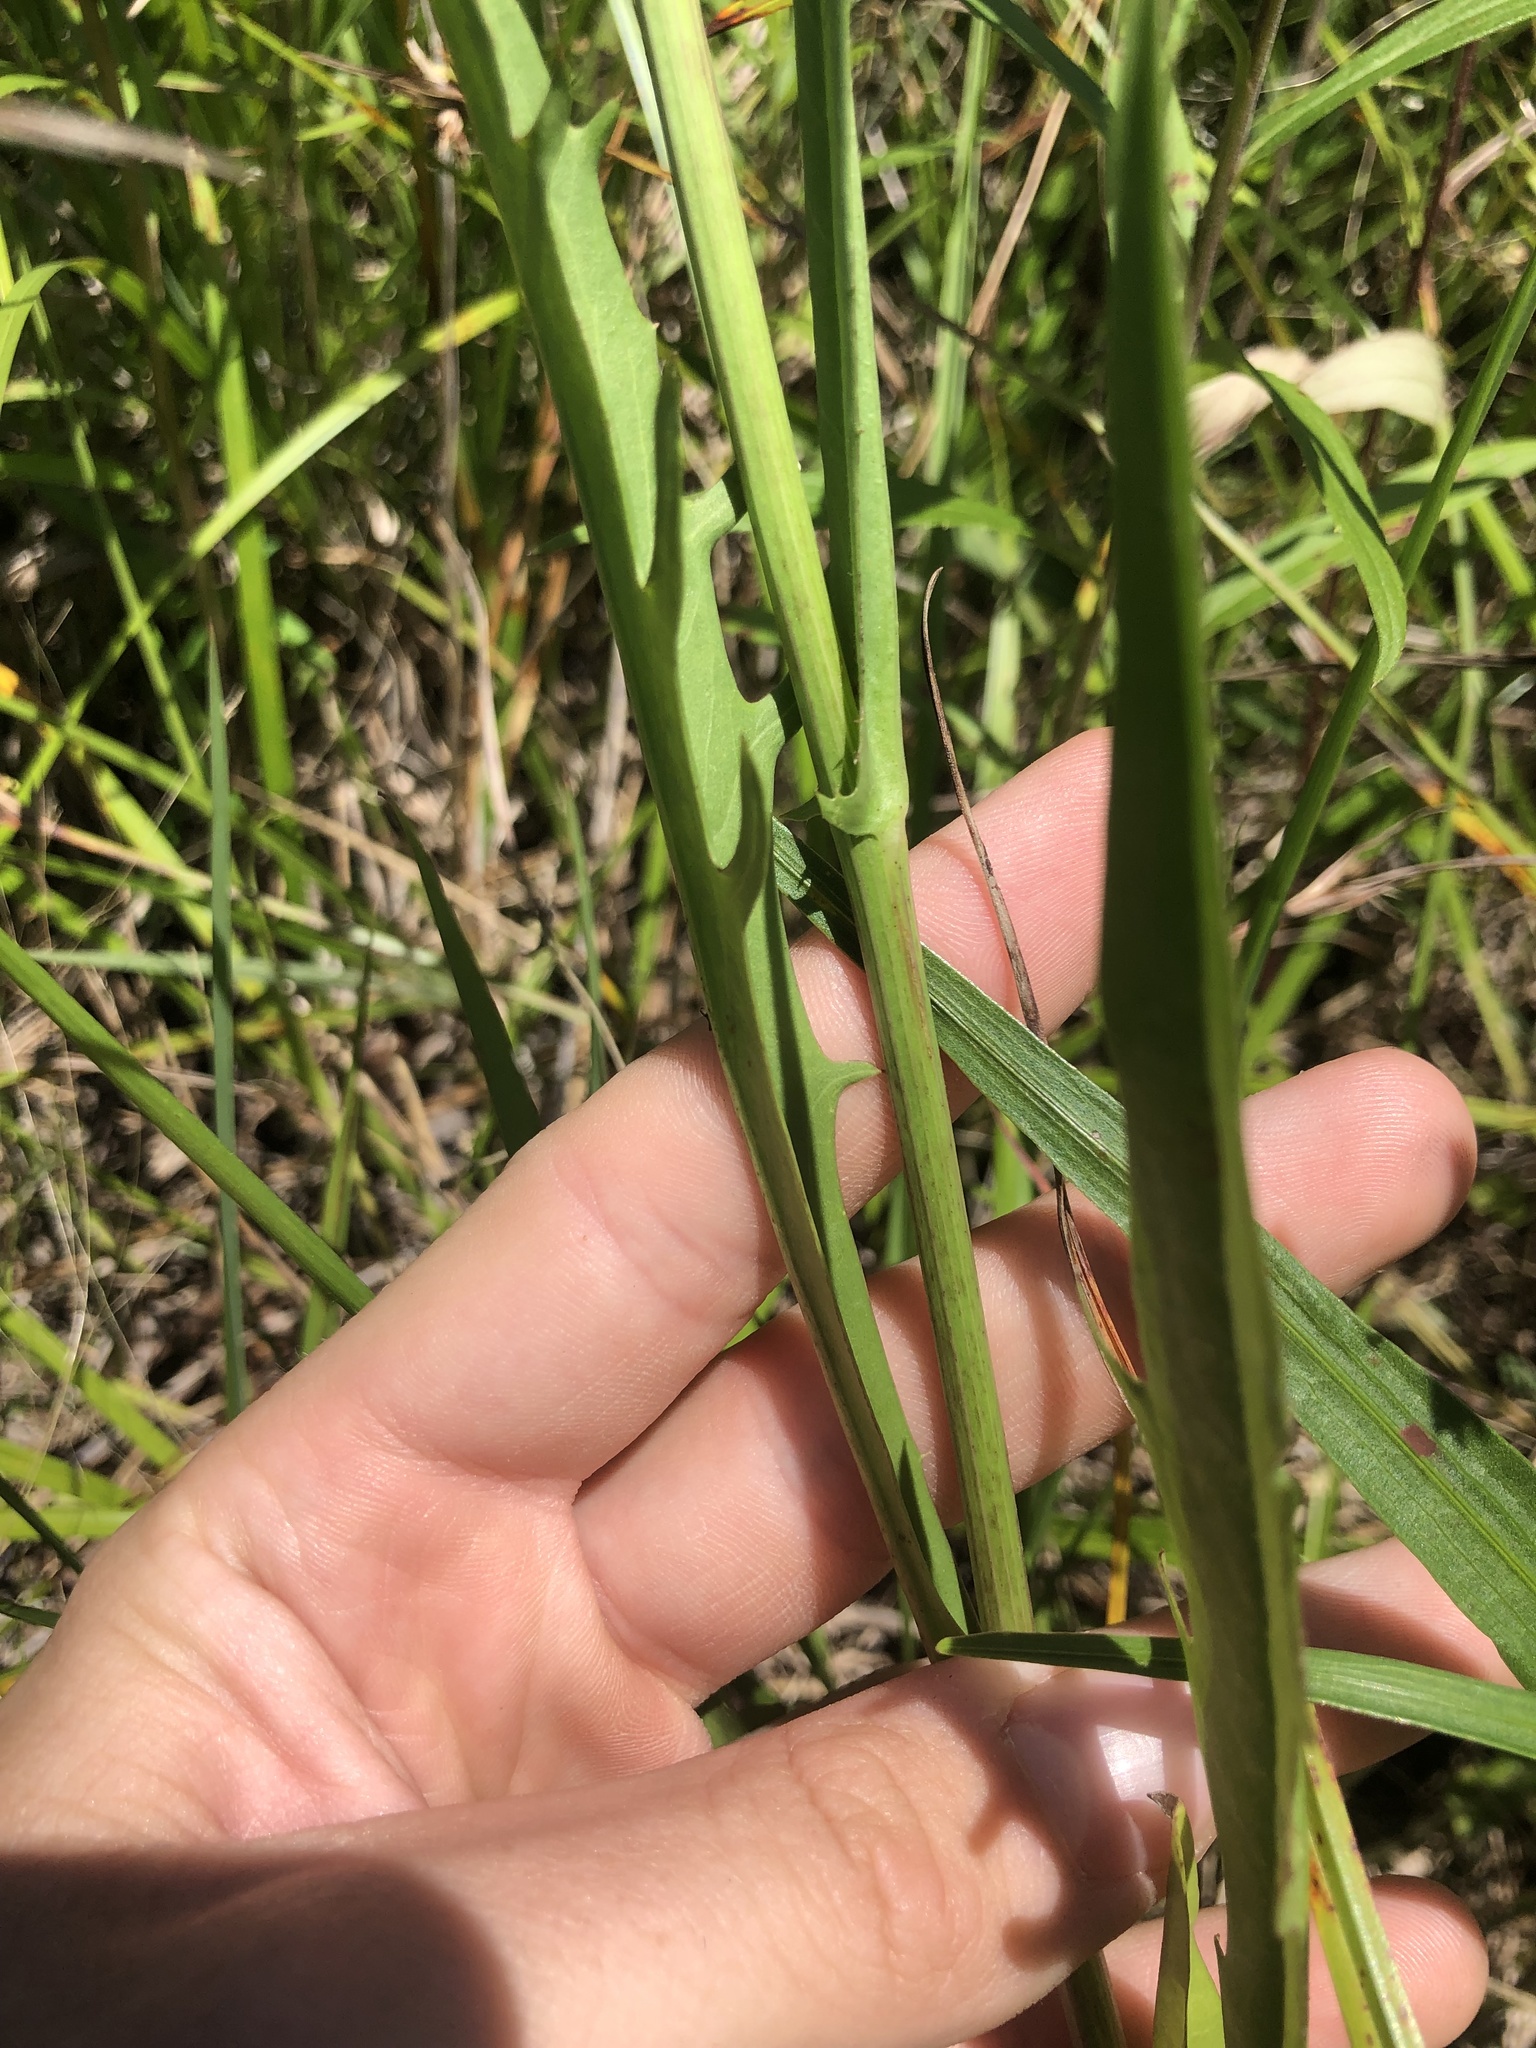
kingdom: Plantae
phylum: Tracheophyta
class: Magnoliopsida
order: Asterales
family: Asteraceae
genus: Pyrrhopappus
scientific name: Pyrrhopappus carolinianus
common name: Carolina desert-chicory
